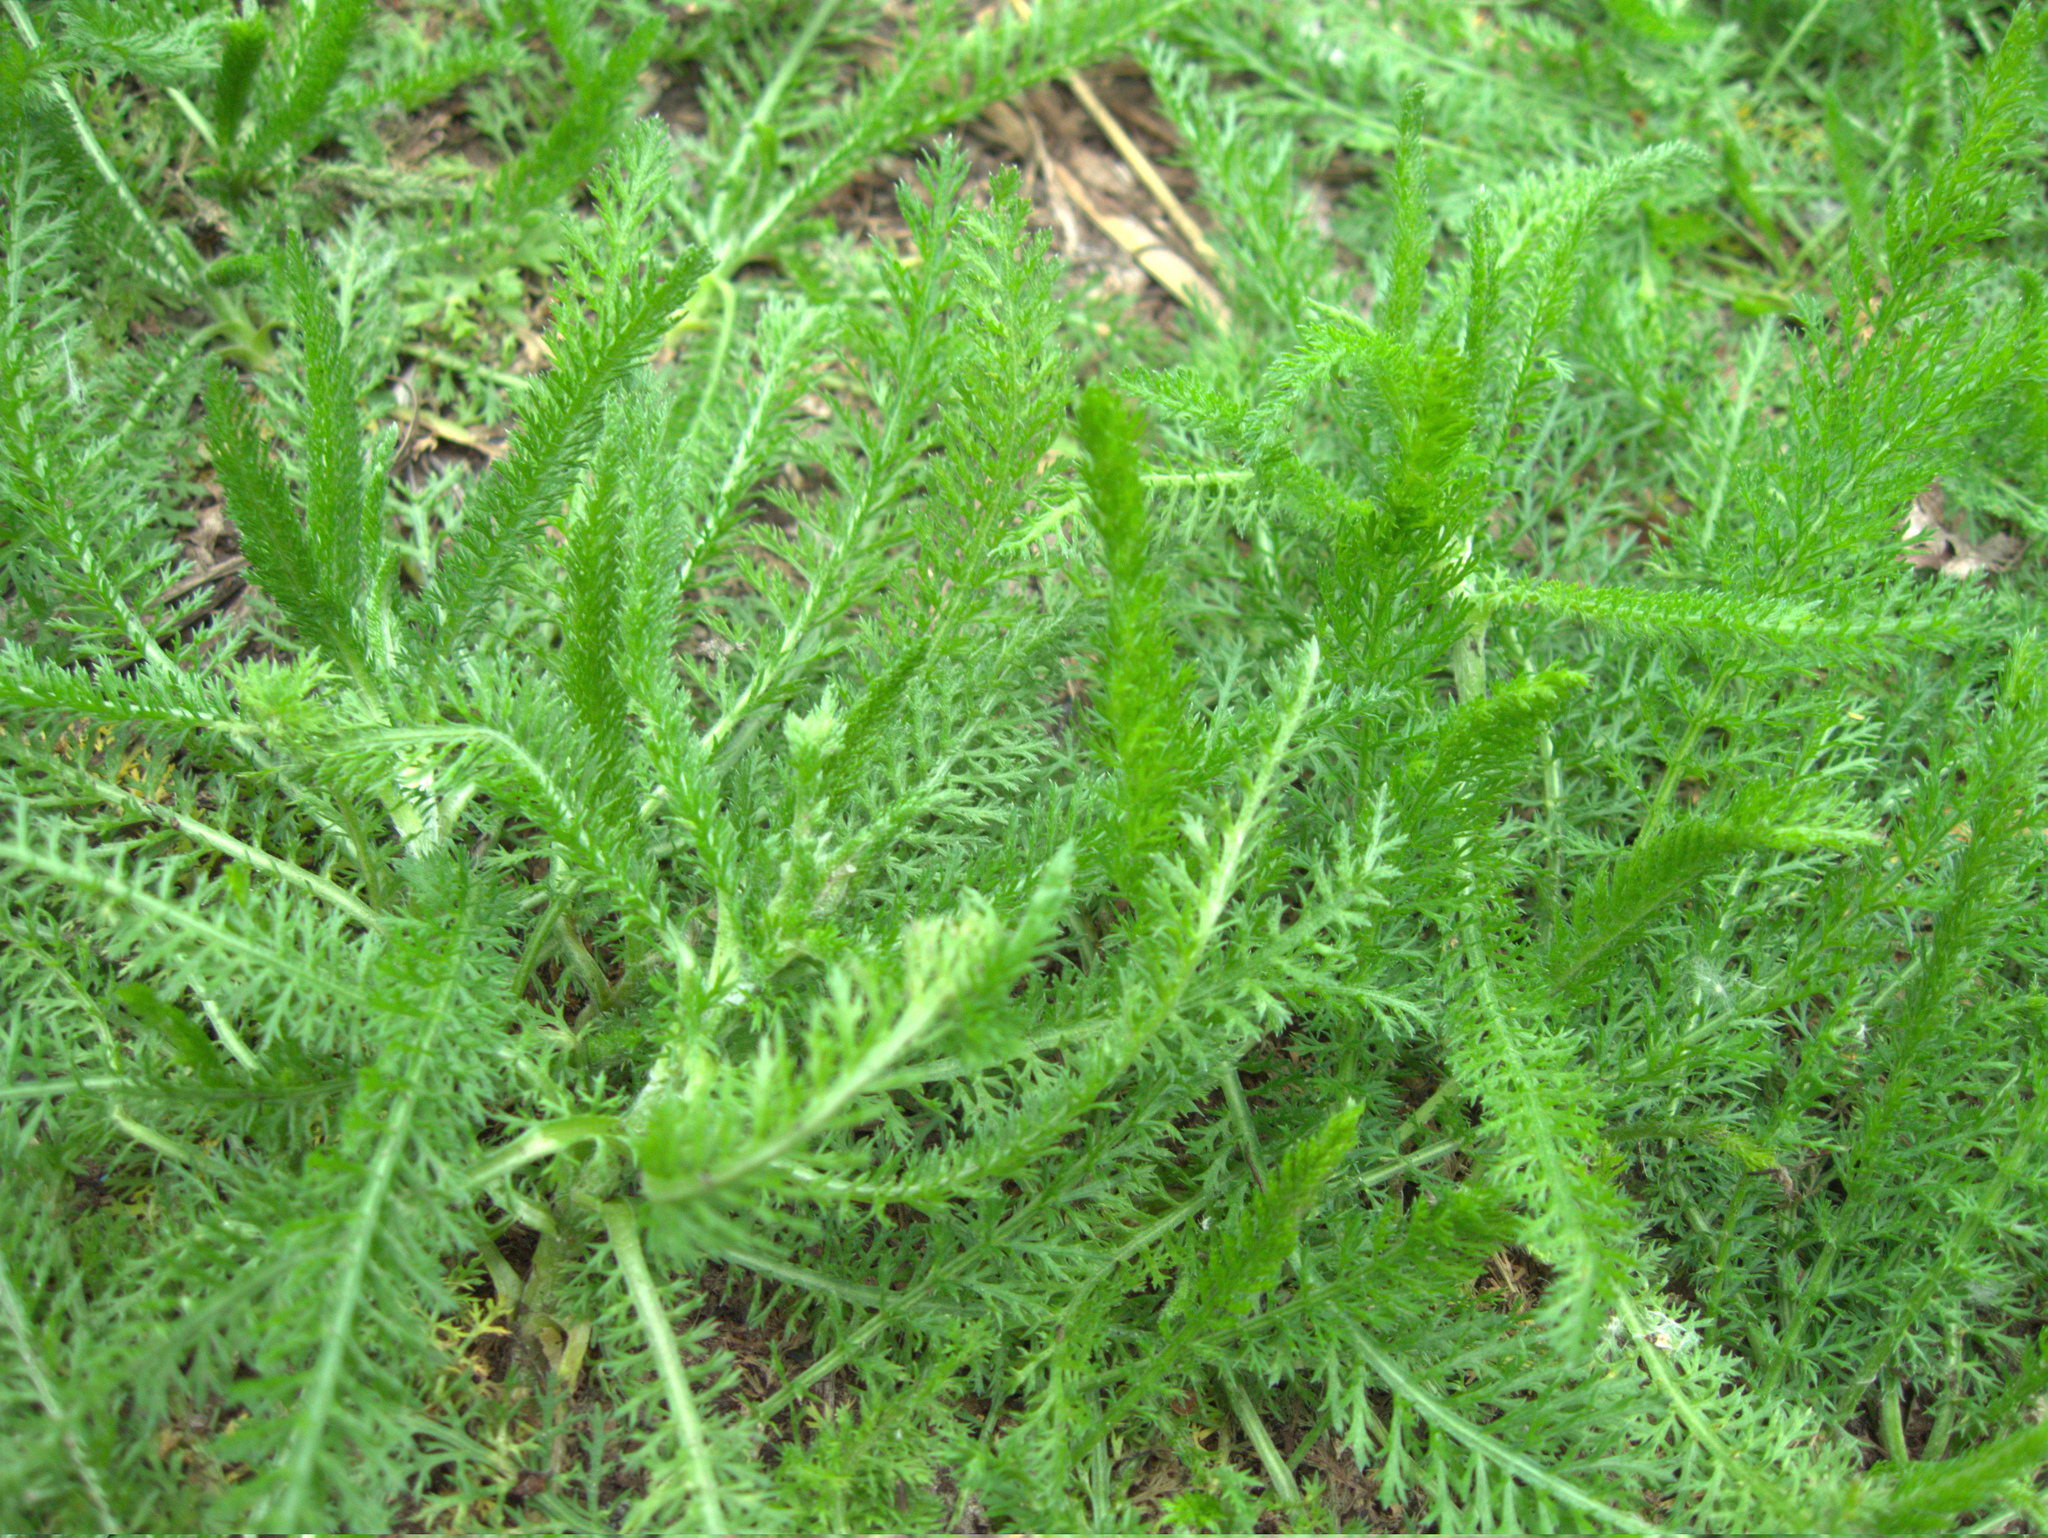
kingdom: Plantae
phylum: Tracheophyta
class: Magnoliopsida
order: Asterales
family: Asteraceae
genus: Achillea
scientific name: Achillea millefolium
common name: Yarrow
